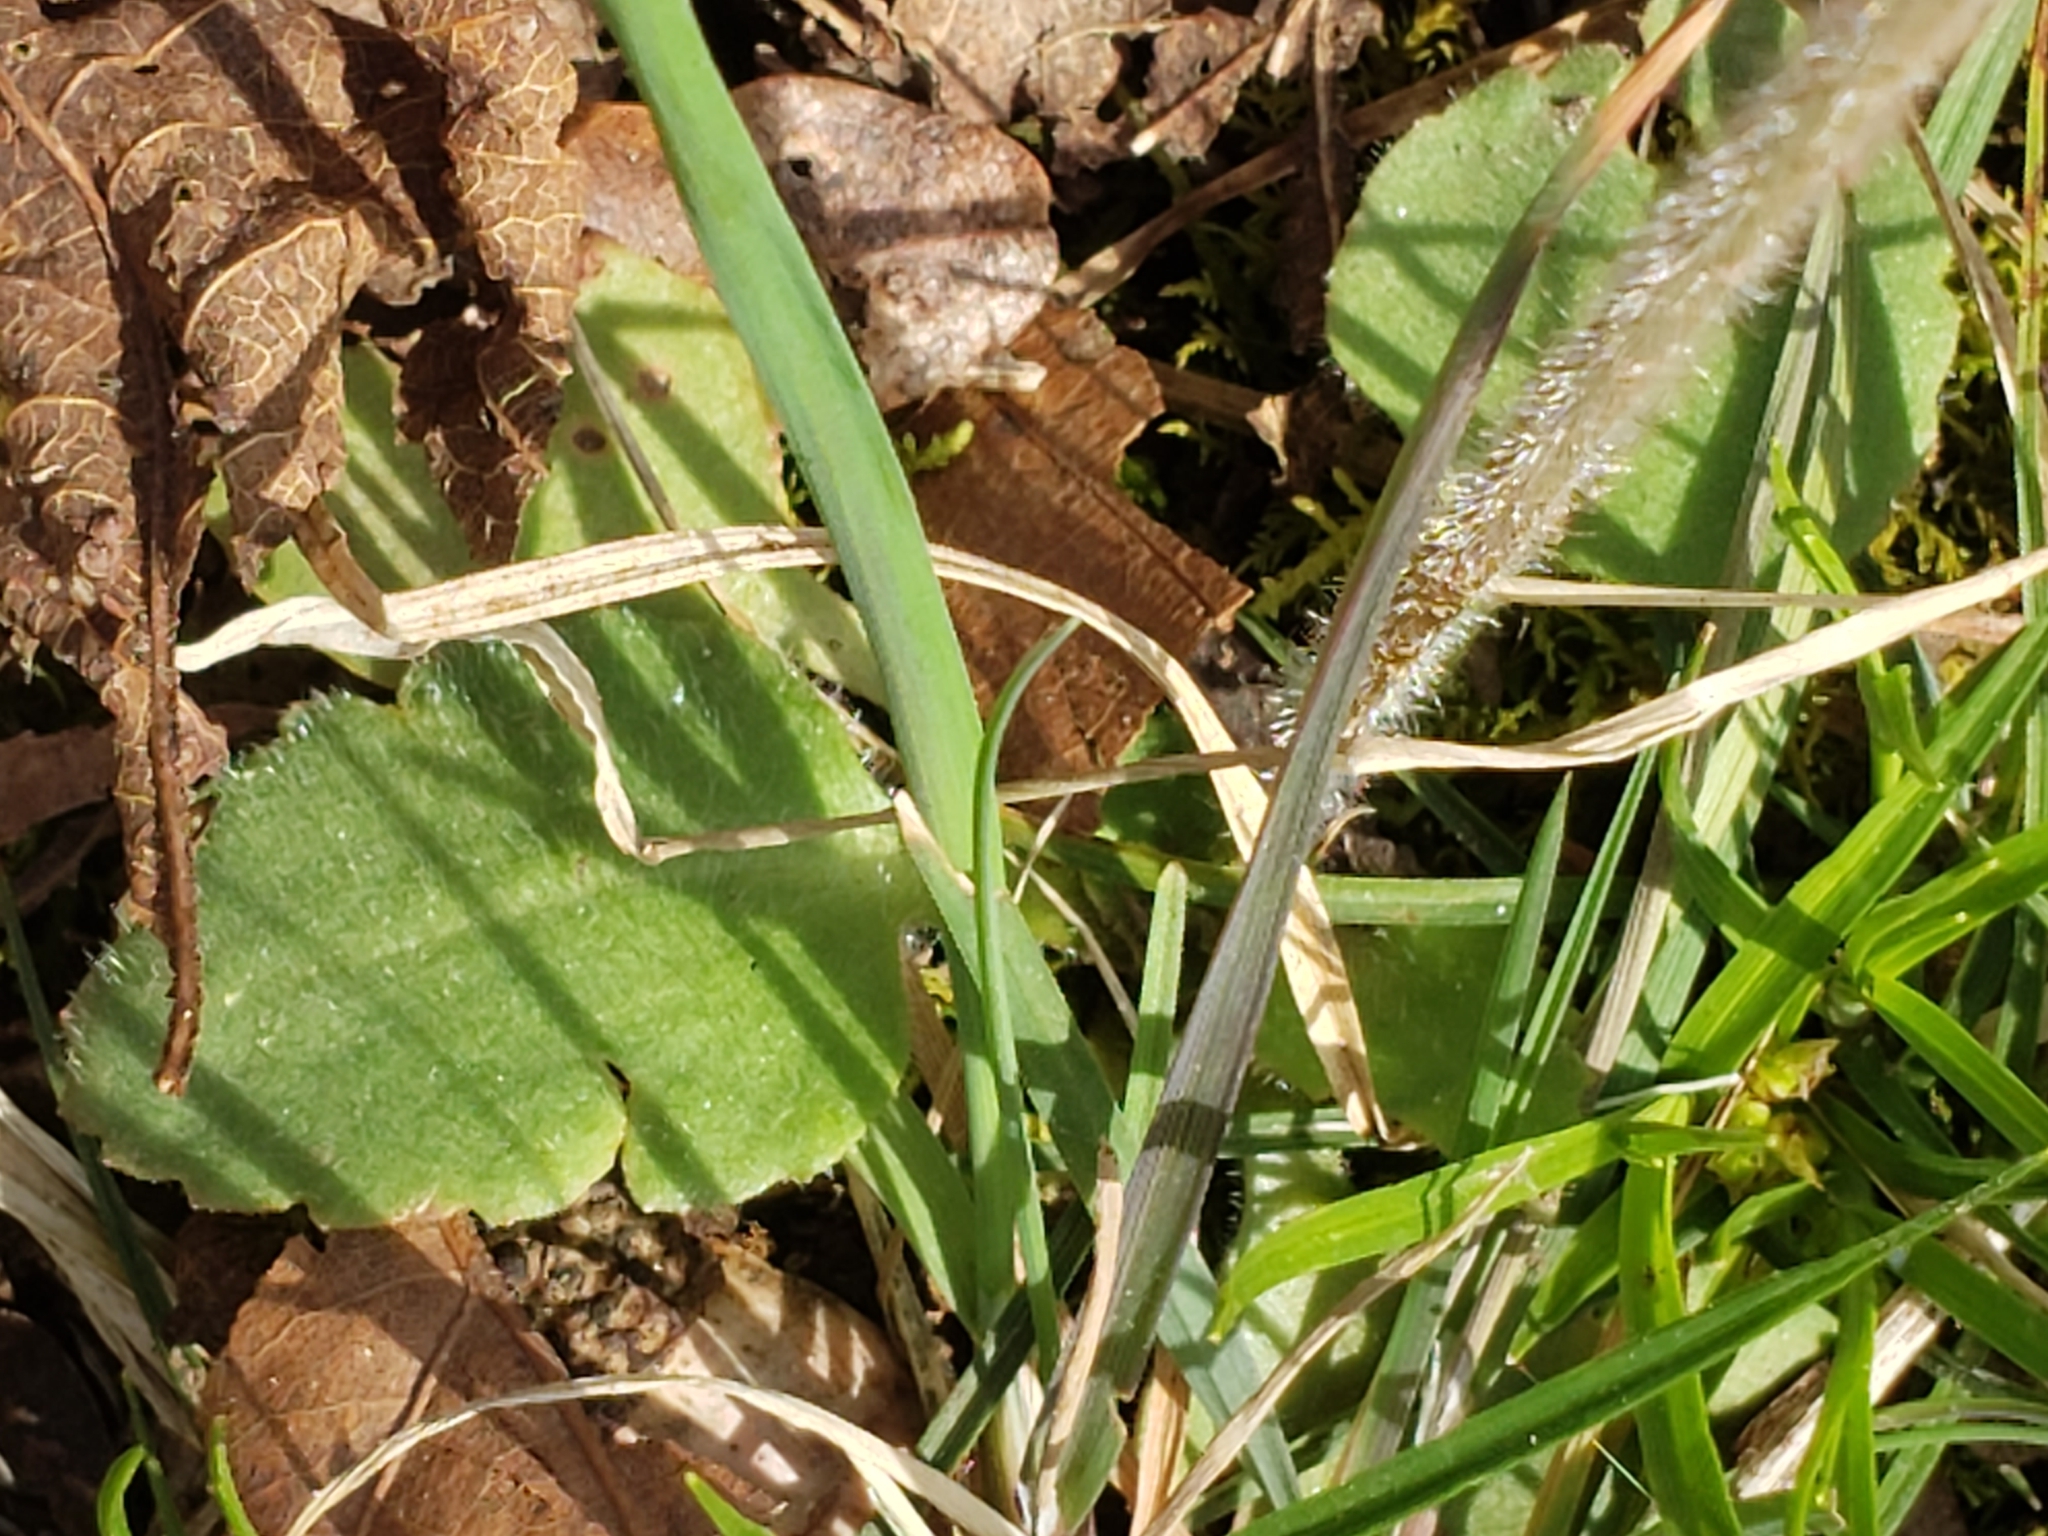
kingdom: Plantae
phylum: Tracheophyta
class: Magnoliopsida
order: Saxifragales
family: Saxifragaceae
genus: Micranthes
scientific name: Micranthes virginiensis
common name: Early saxifrage
